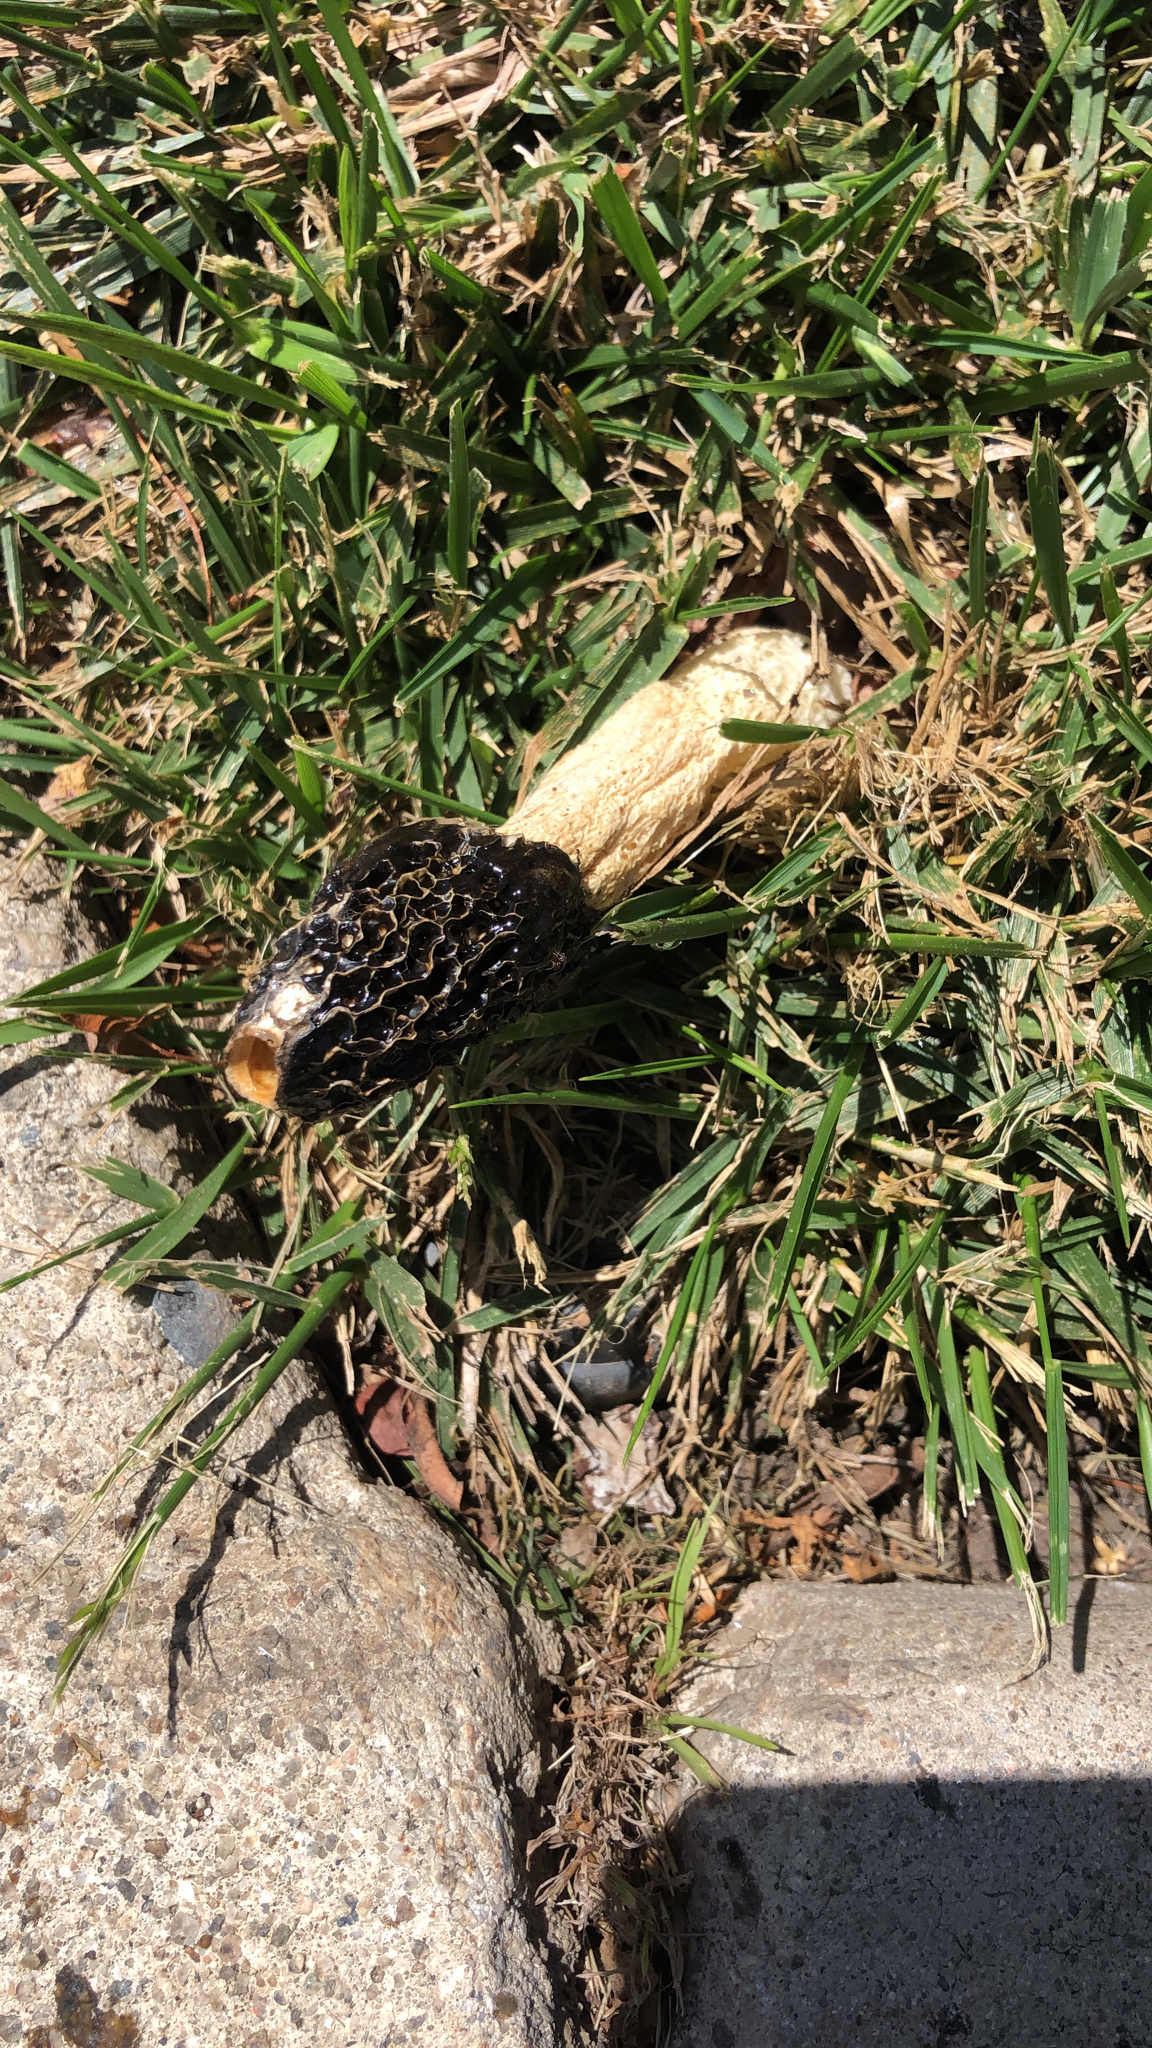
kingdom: Fungi
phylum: Basidiomycota
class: Agaricomycetes
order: Phallales
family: Phallaceae
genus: Phallus
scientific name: Phallus hadriani
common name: Sand stinkhorn
